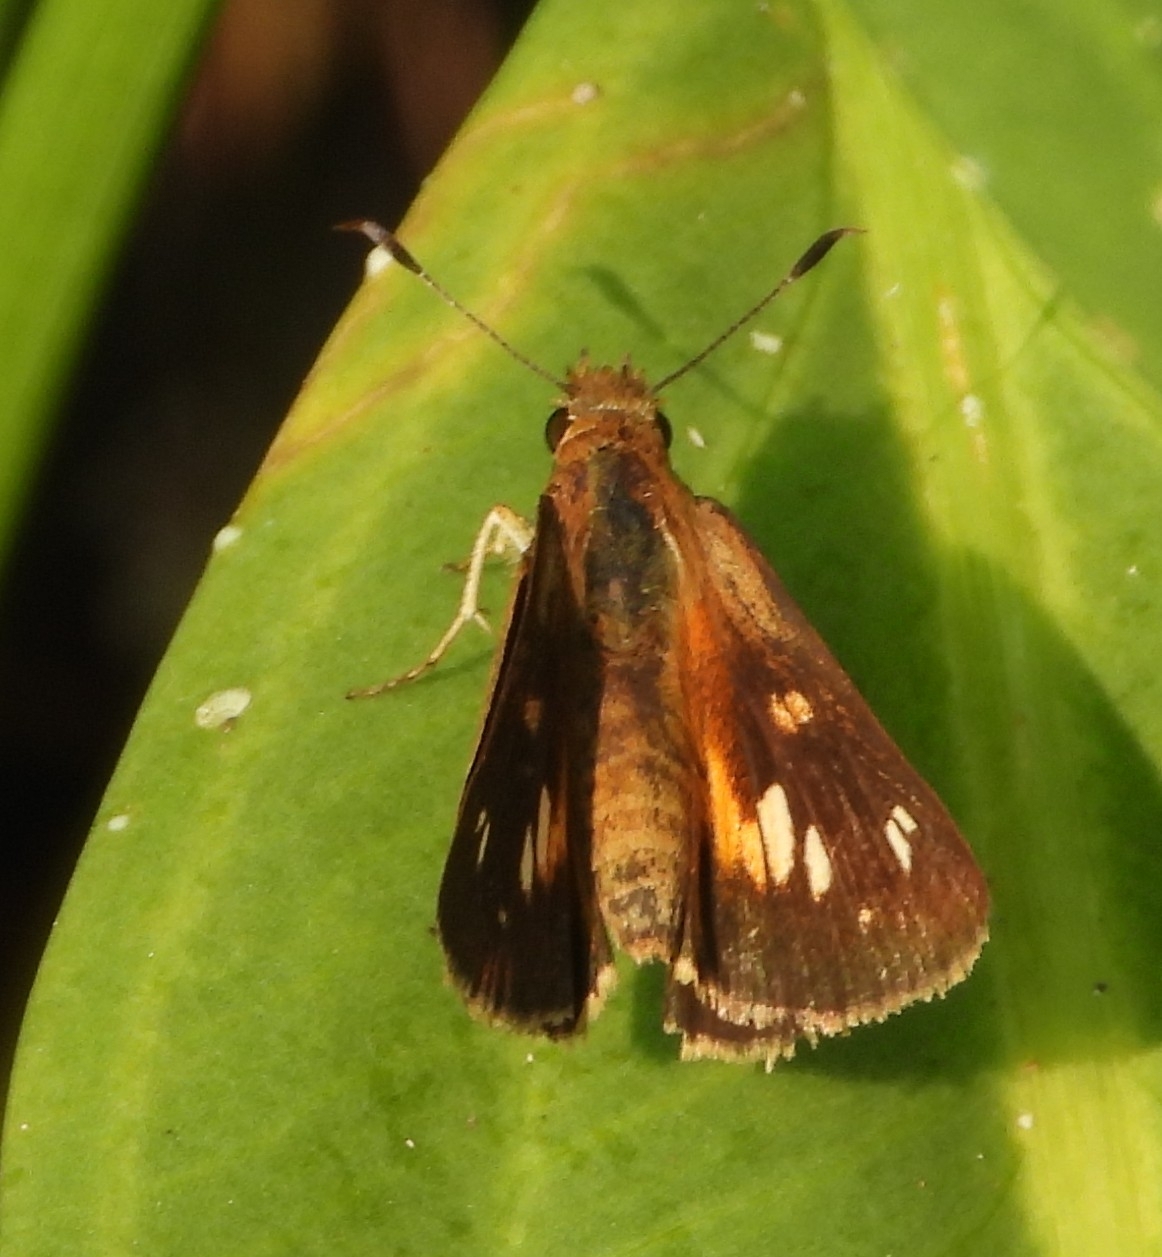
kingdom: Animalia
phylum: Arthropoda
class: Insecta
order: Lepidoptera
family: Hesperiidae
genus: Poanes
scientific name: Poanes viator
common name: Broad-winged skipper
